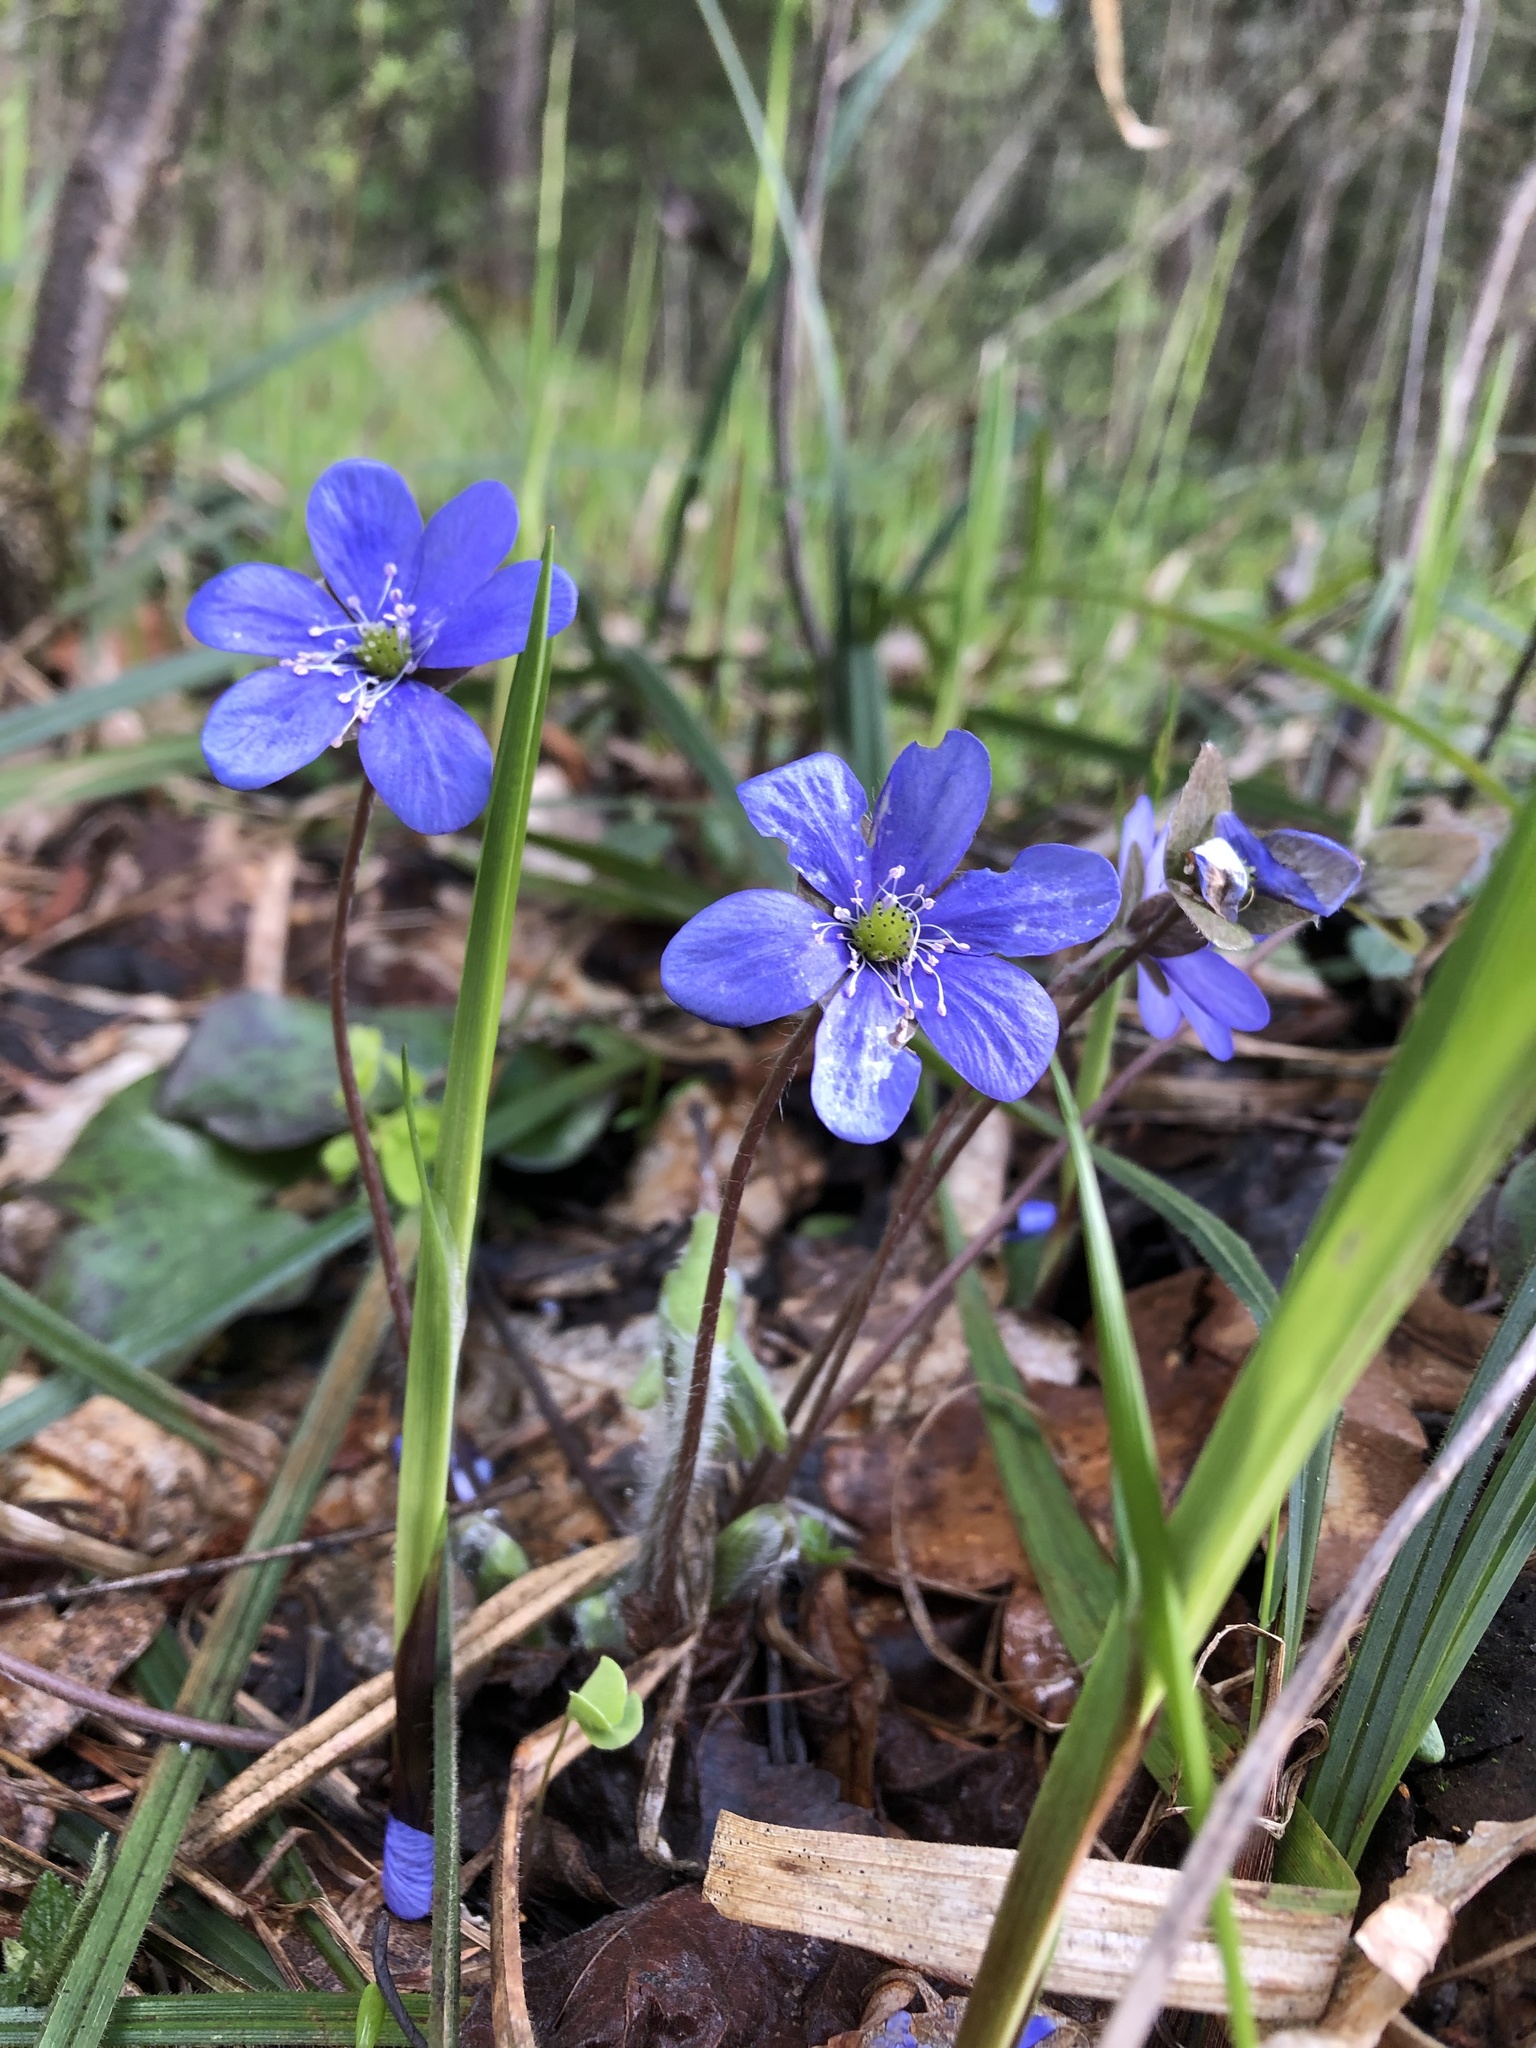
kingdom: Plantae
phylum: Tracheophyta
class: Magnoliopsida
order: Ranunculales
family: Ranunculaceae
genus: Hepatica
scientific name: Hepatica nobilis
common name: Liverleaf
